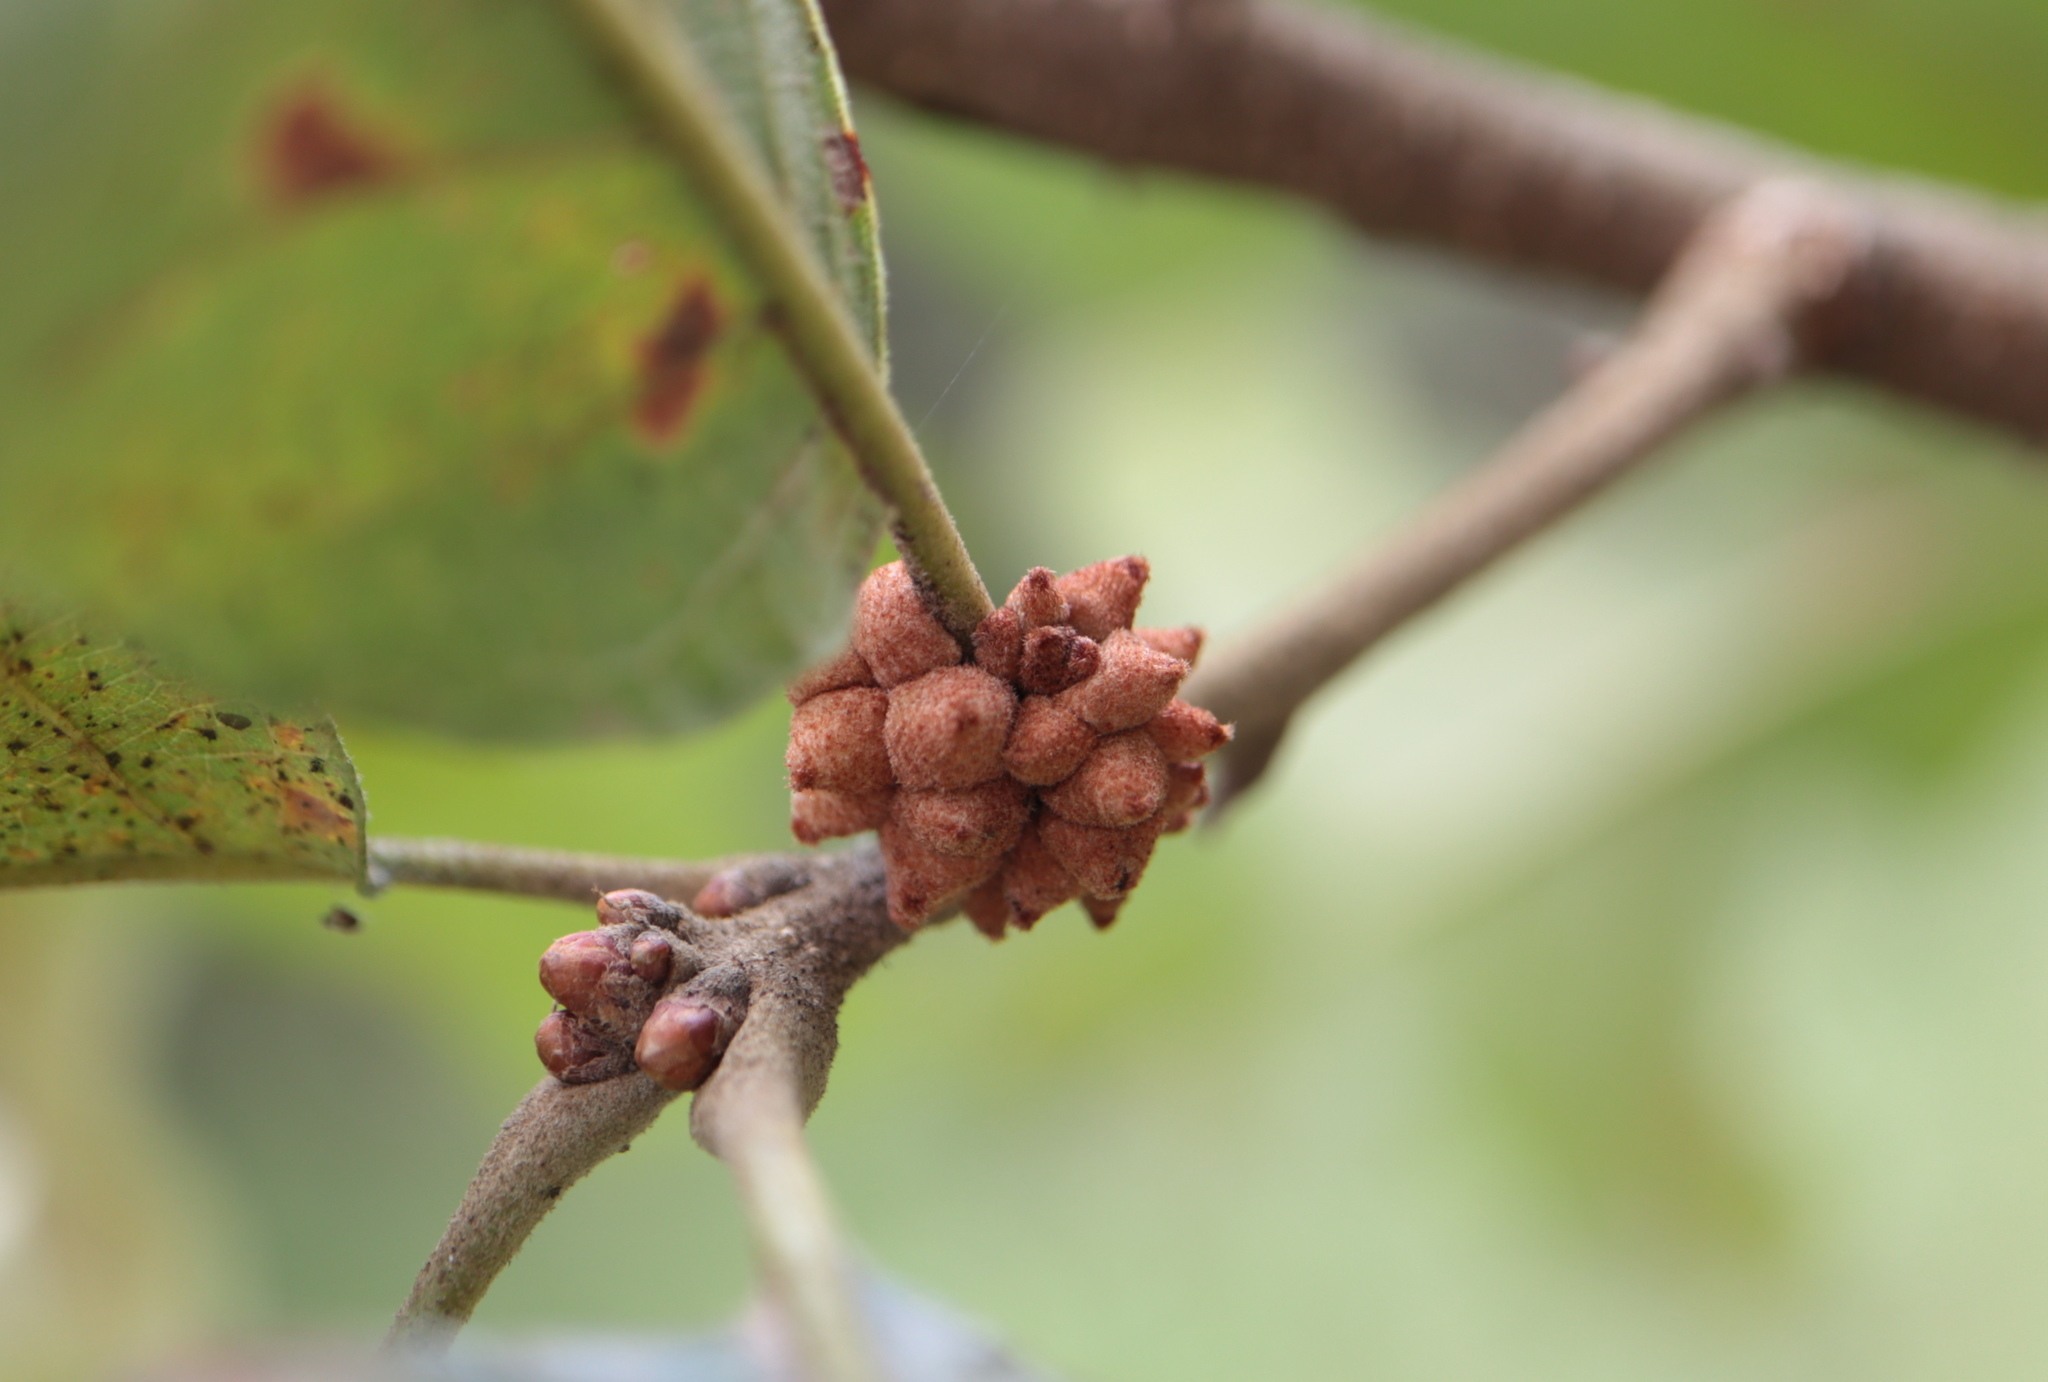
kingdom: Animalia
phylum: Arthropoda
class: Insecta
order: Hymenoptera
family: Cynipidae
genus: Andricus
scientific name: Andricus
